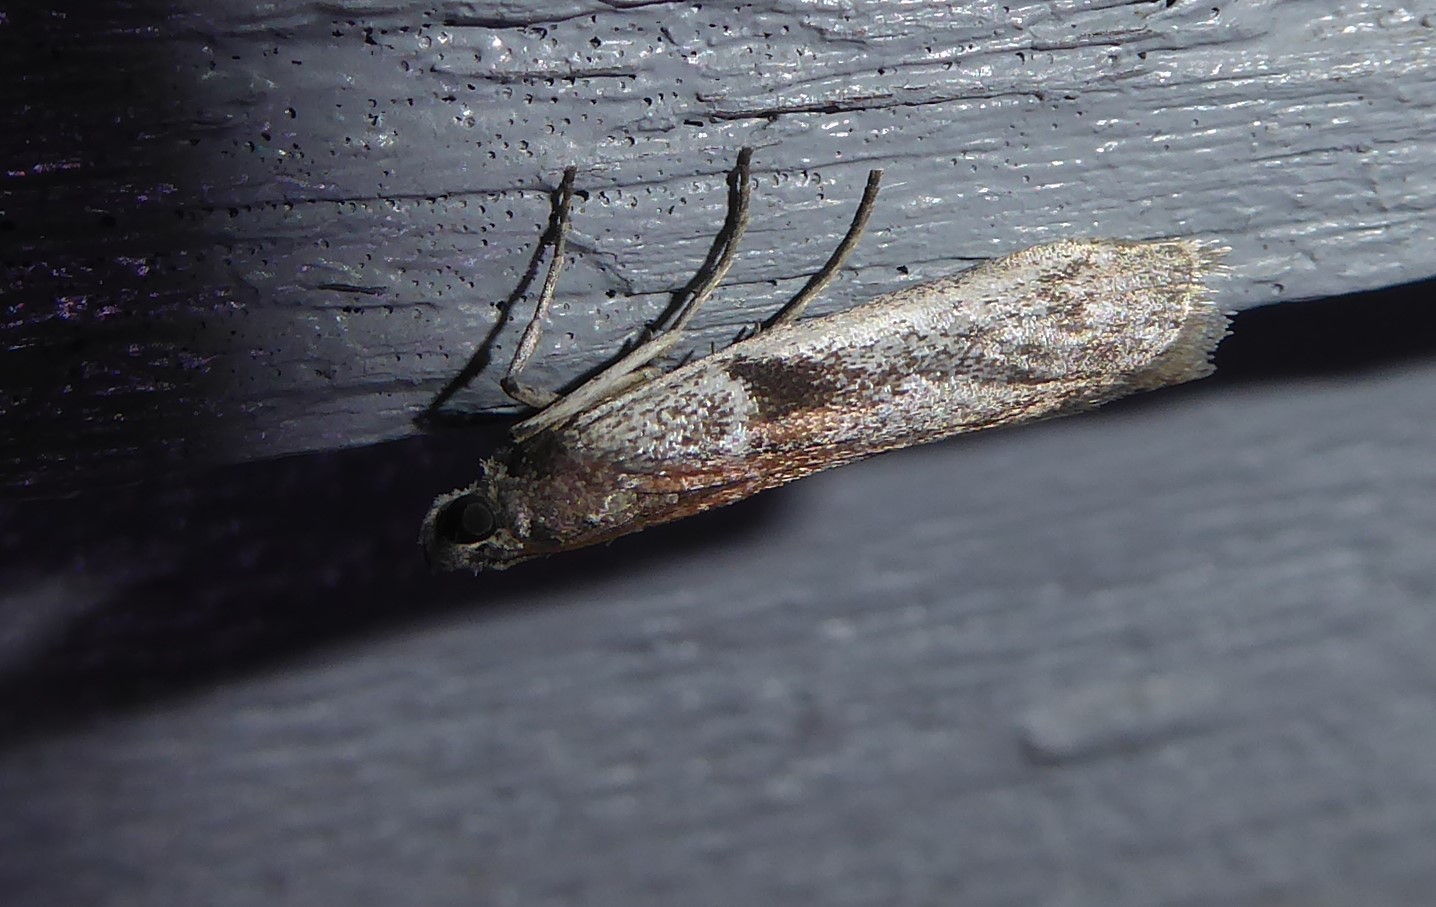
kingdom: Animalia
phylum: Arthropoda
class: Insecta
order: Lepidoptera
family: Pyralidae
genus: Patagoniodes
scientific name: Patagoniodes farinaria
